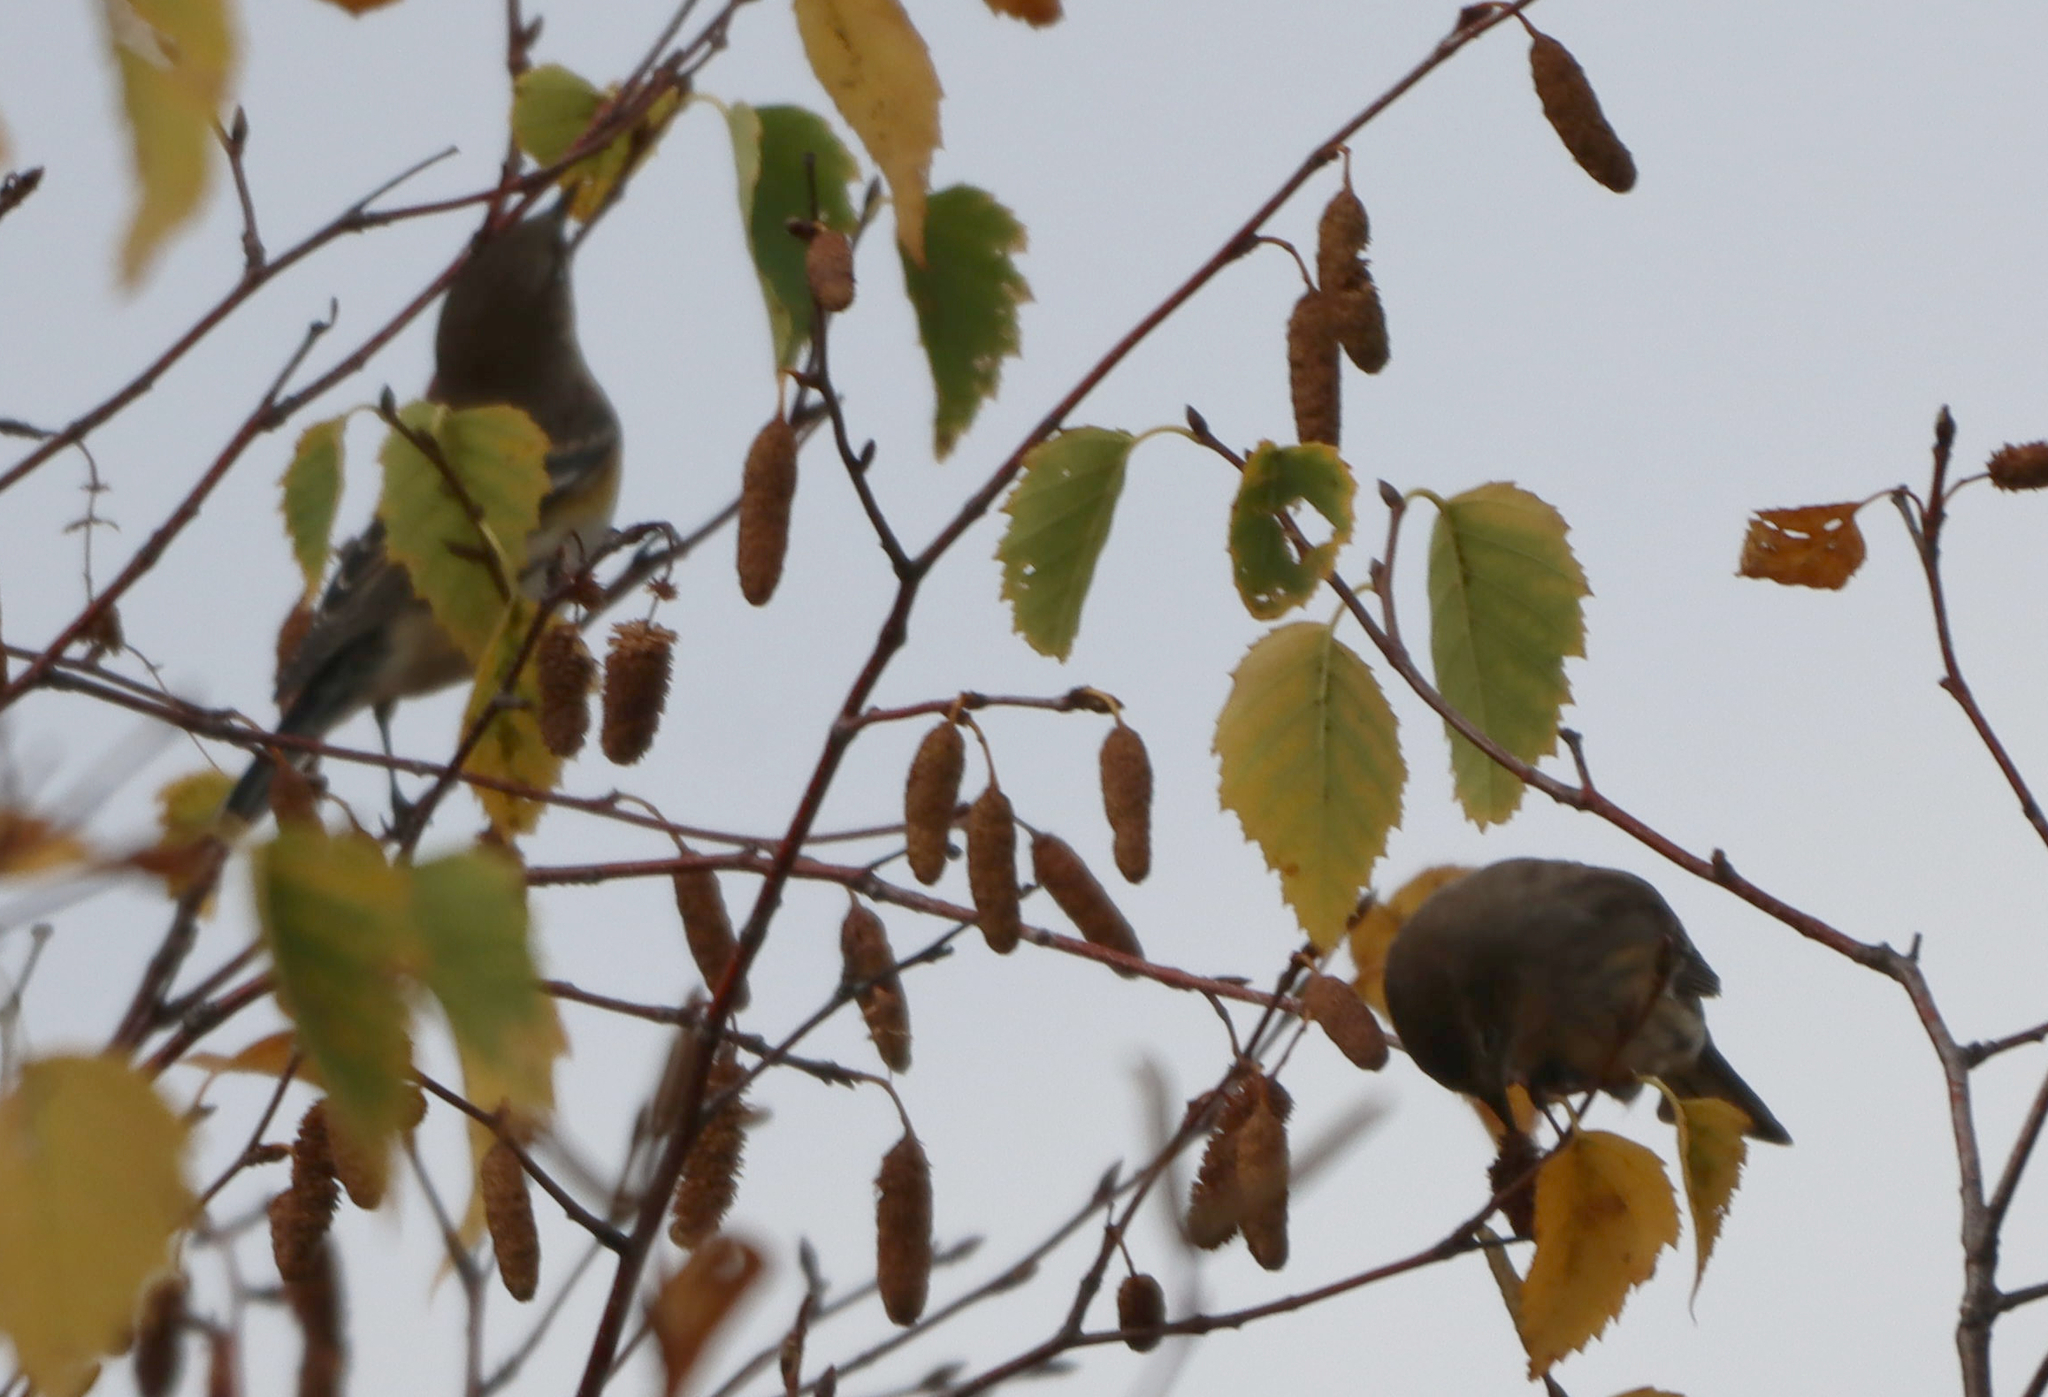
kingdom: Animalia
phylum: Chordata
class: Aves
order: Passeriformes
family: Parulidae
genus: Setophaga
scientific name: Setophaga coronata
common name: Myrtle warbler
